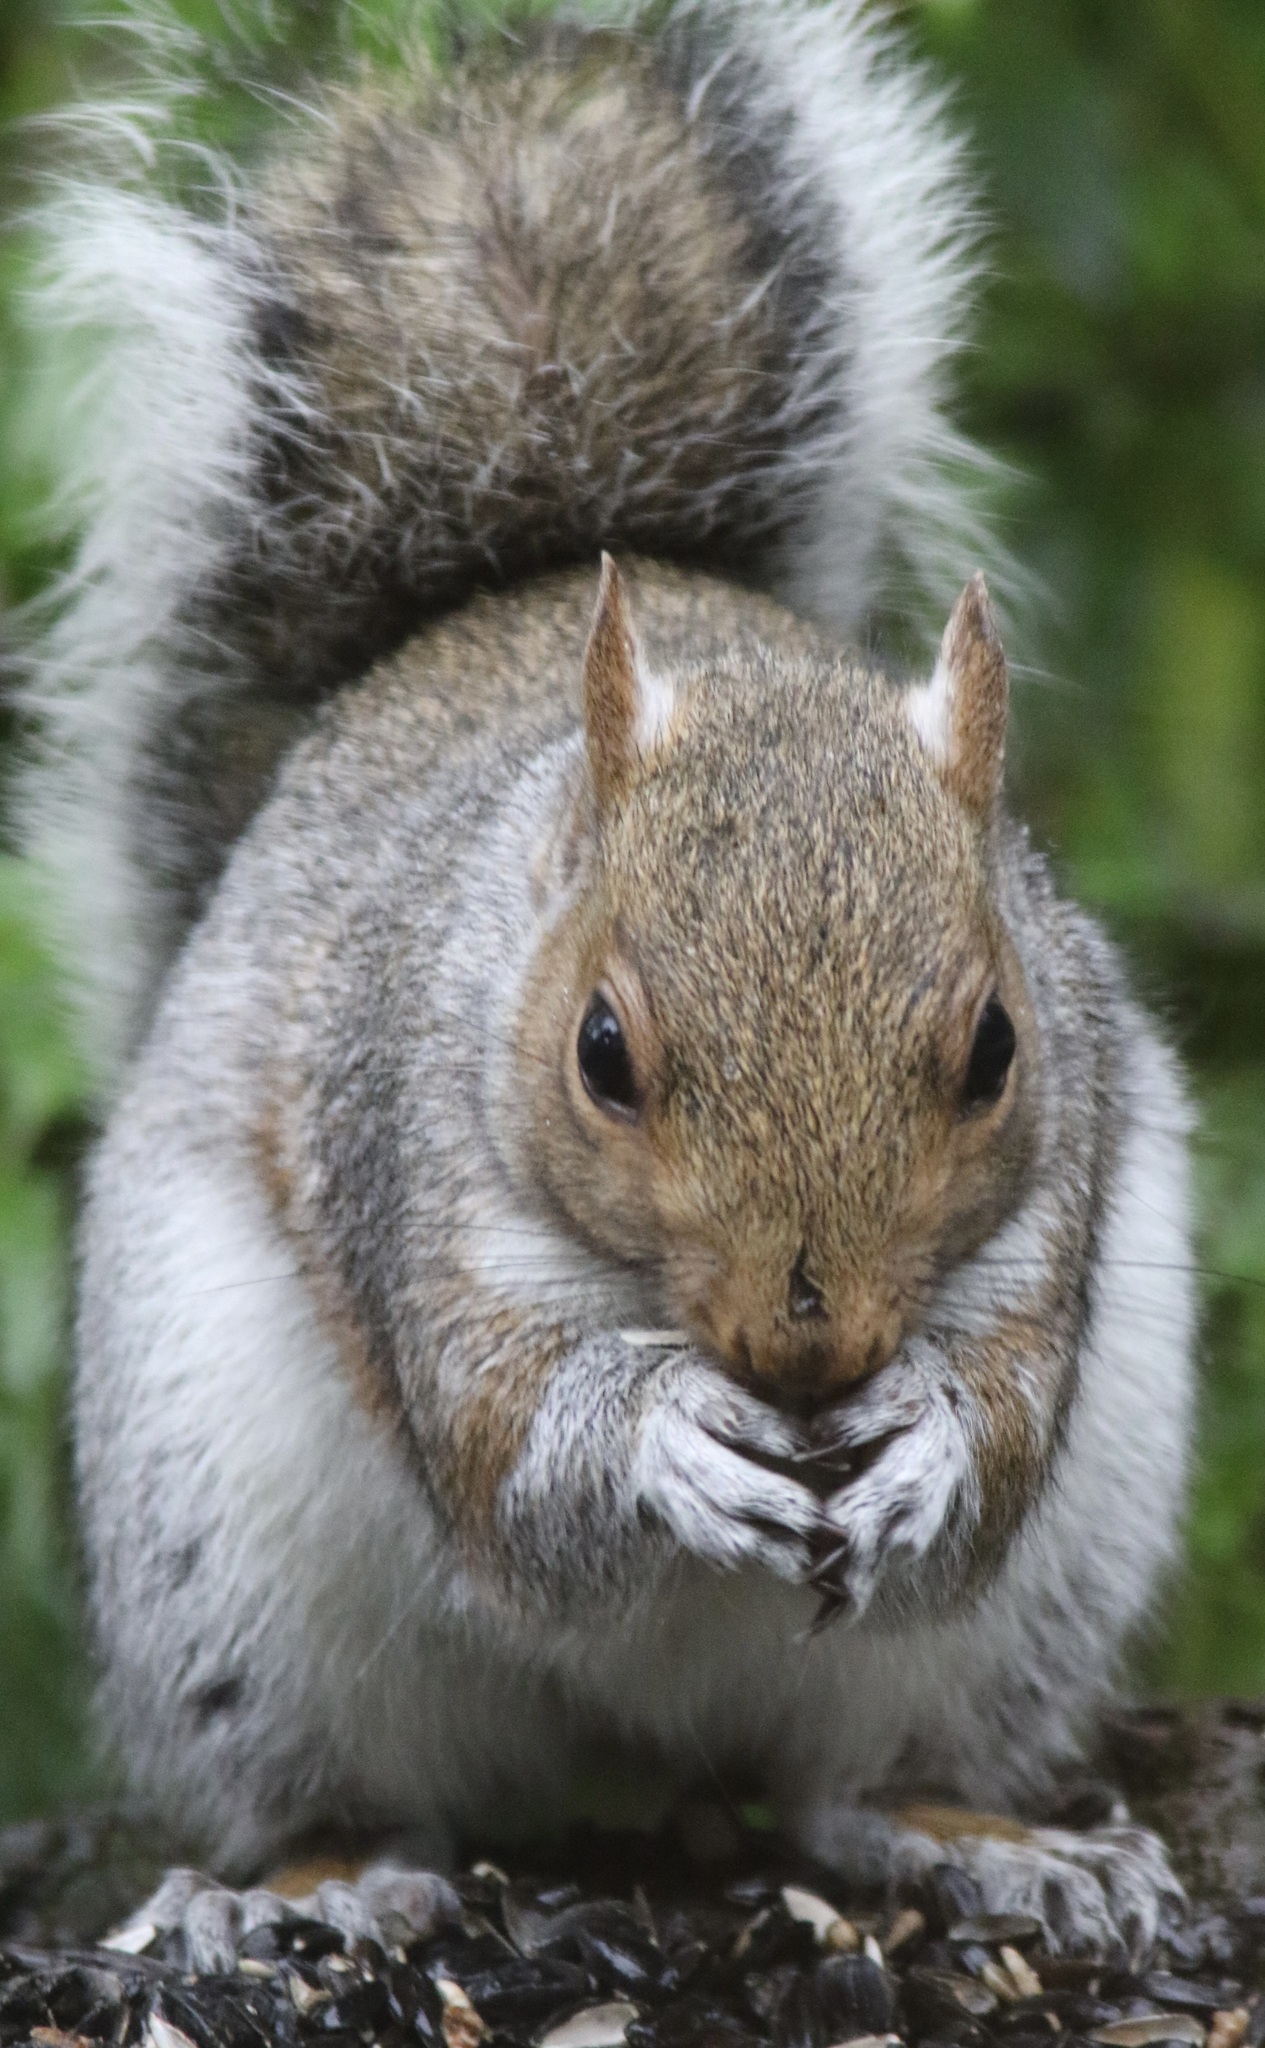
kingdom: Animalia
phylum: Chordata
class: Mammalia
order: Rodentia
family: Sciuridae
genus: Sciurus
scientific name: Sciurus carolinensis
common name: Eastern gray squirrel
